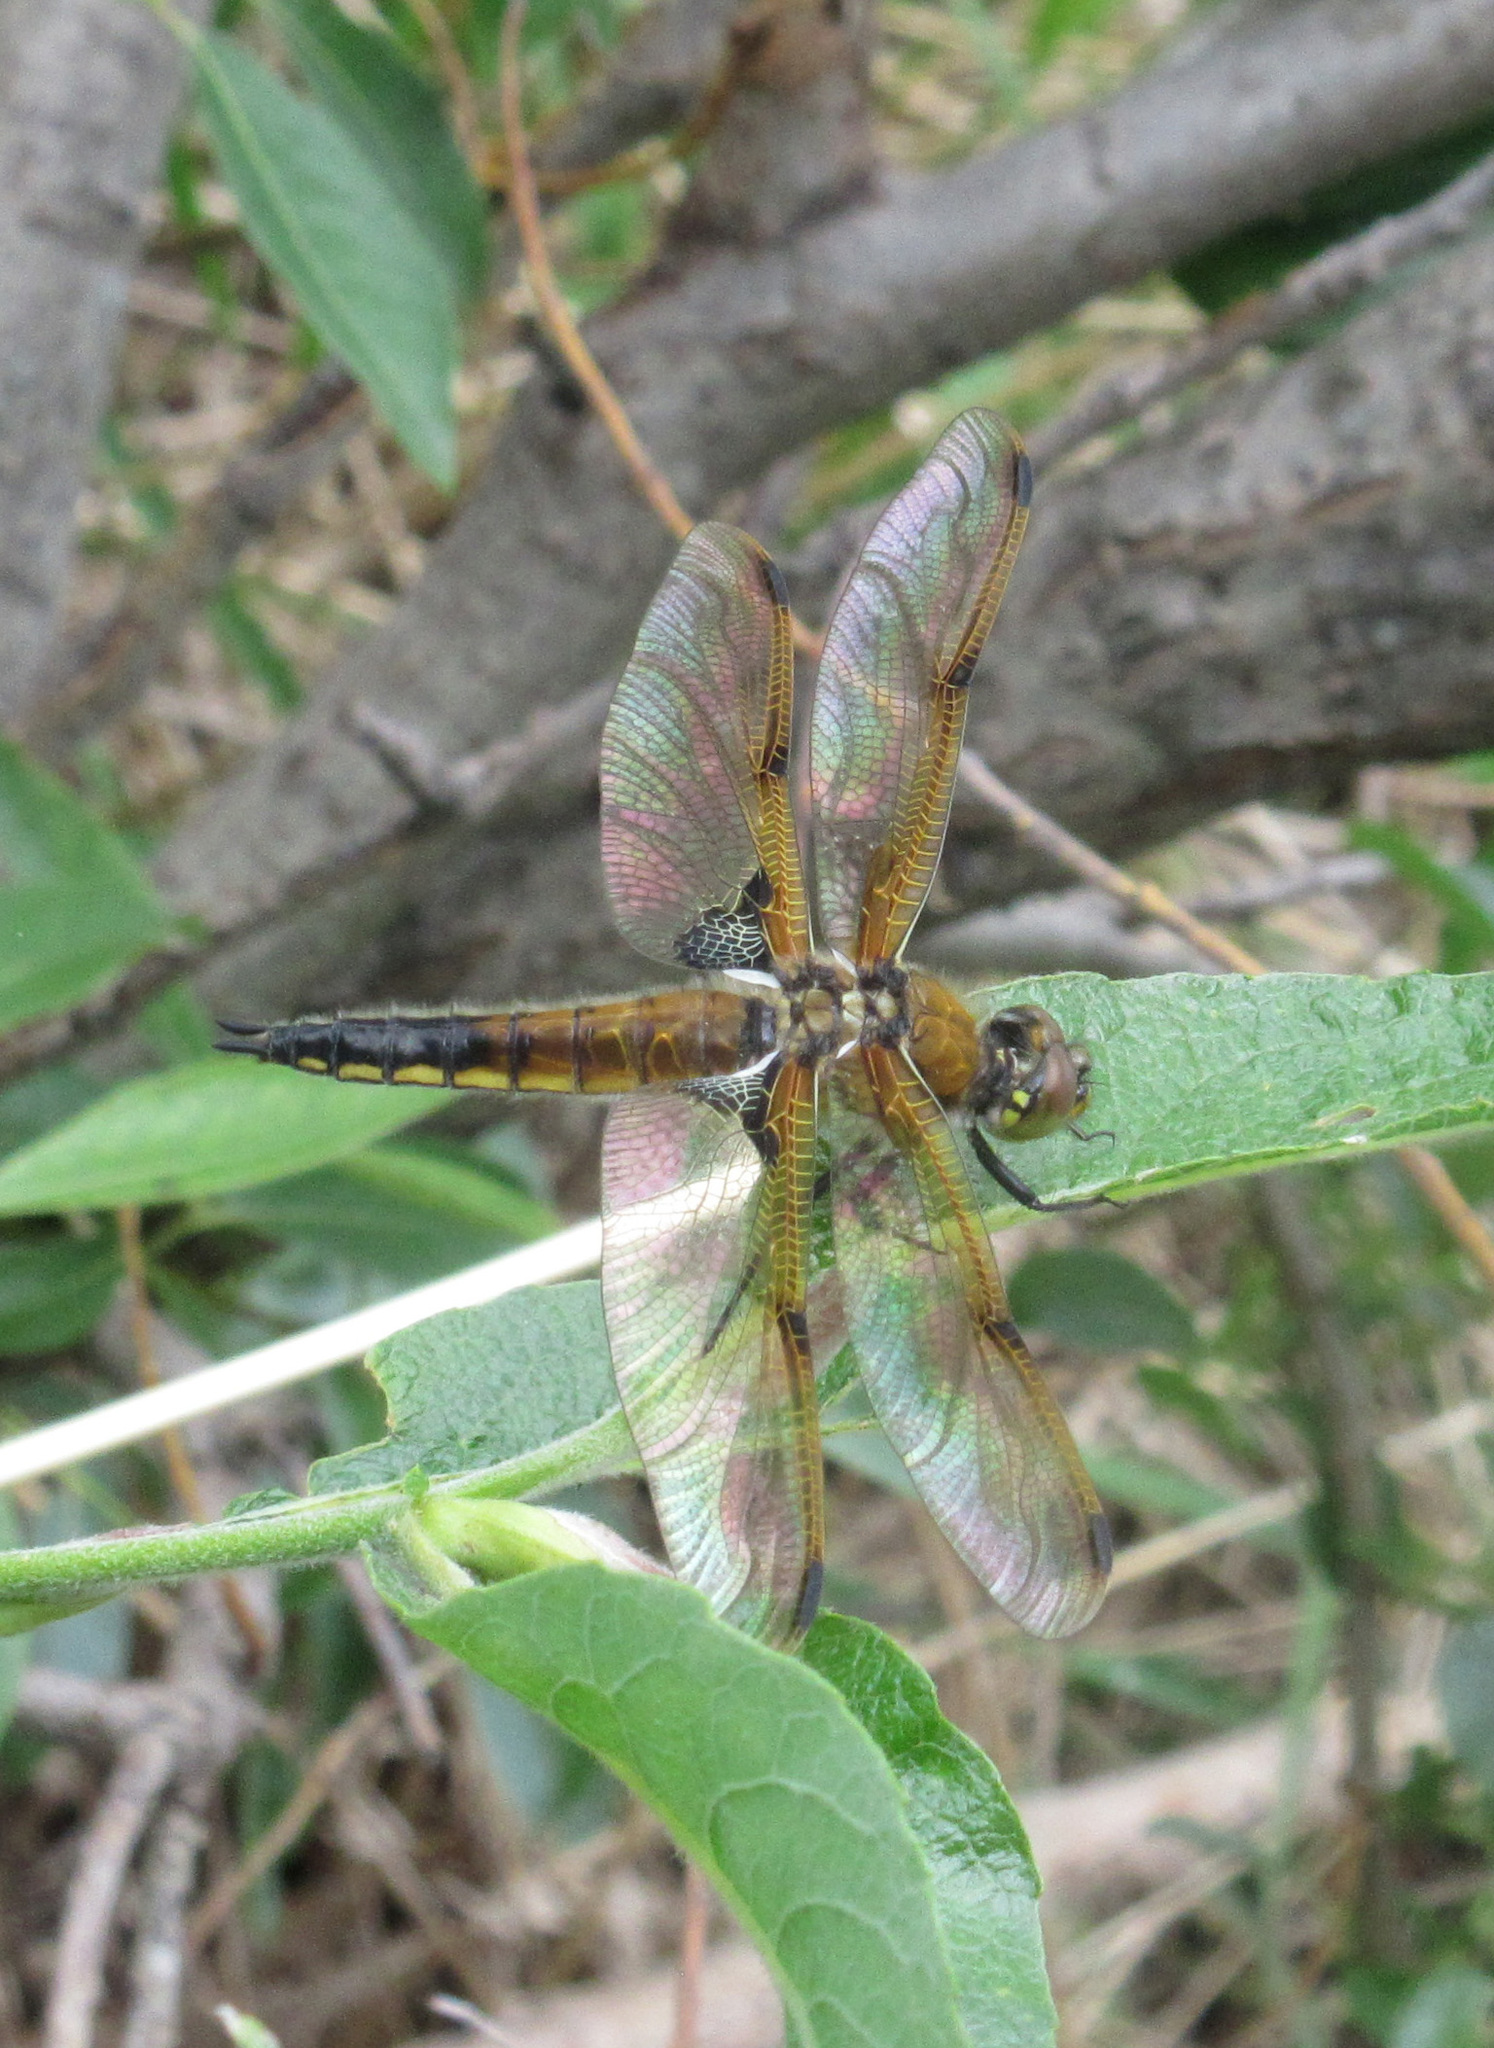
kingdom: Animalia
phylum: Arthropoda
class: Insecta
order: Odonata
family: Libellulidae
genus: Libellula
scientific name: Libellula quadrimaculata
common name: Four-spotted chaser
